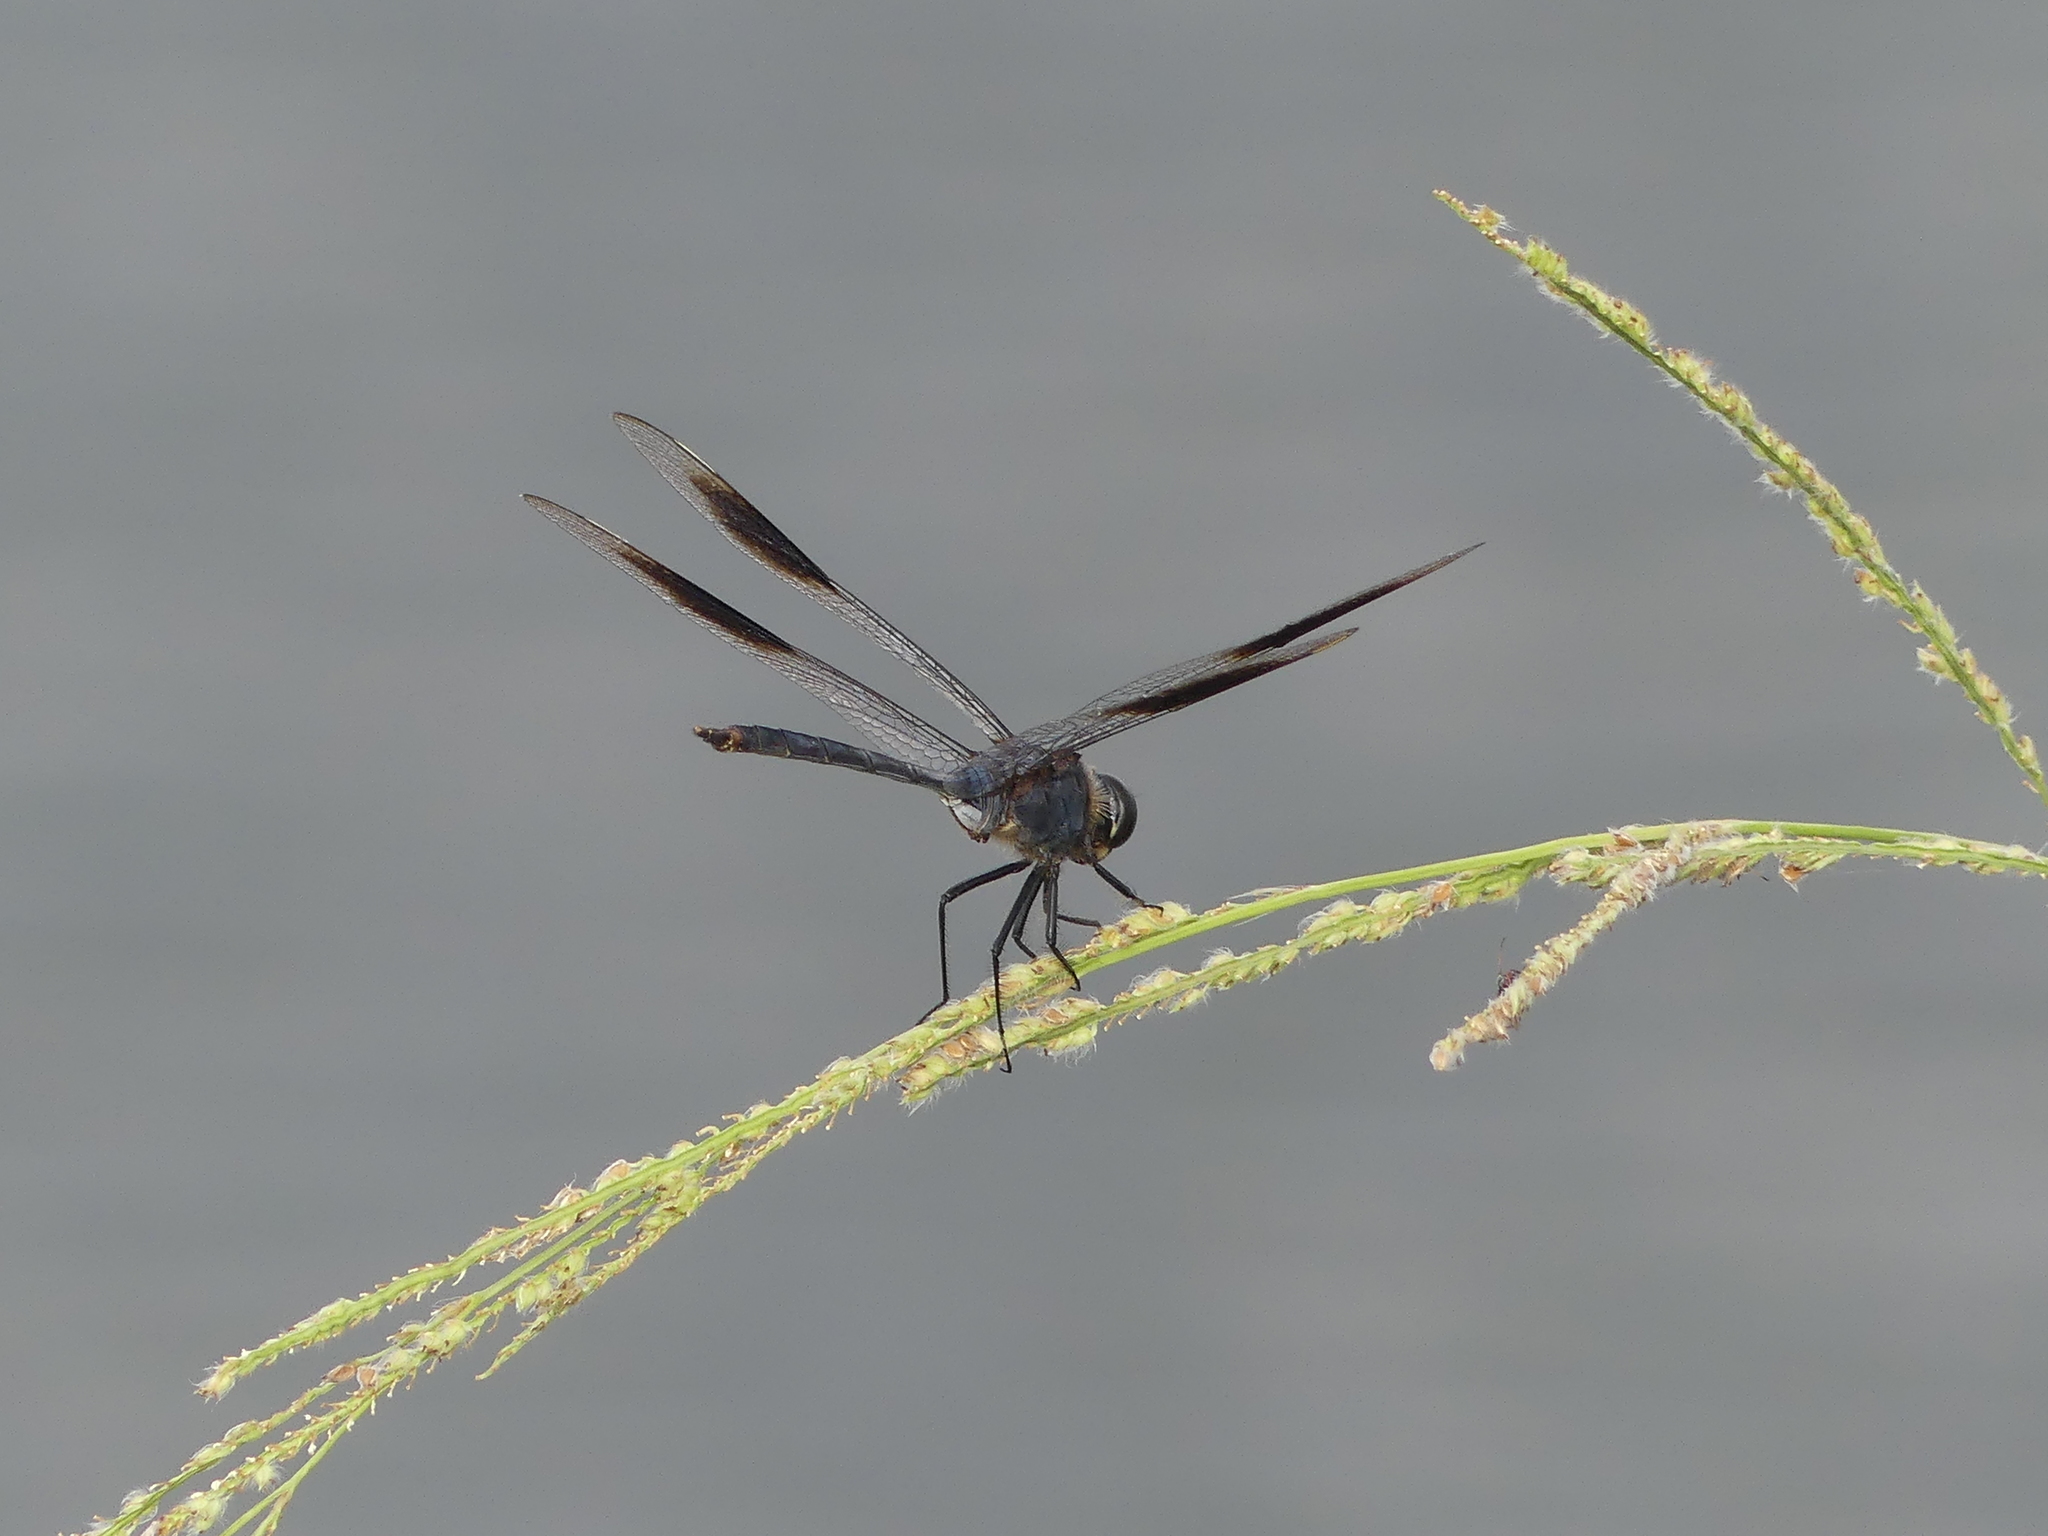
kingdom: Animalia
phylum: Arthropoda
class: Insecta
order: Odonata
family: Libellulidae
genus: Brachymesia
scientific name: Brachymesia gravida
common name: Four-spotted pennant
